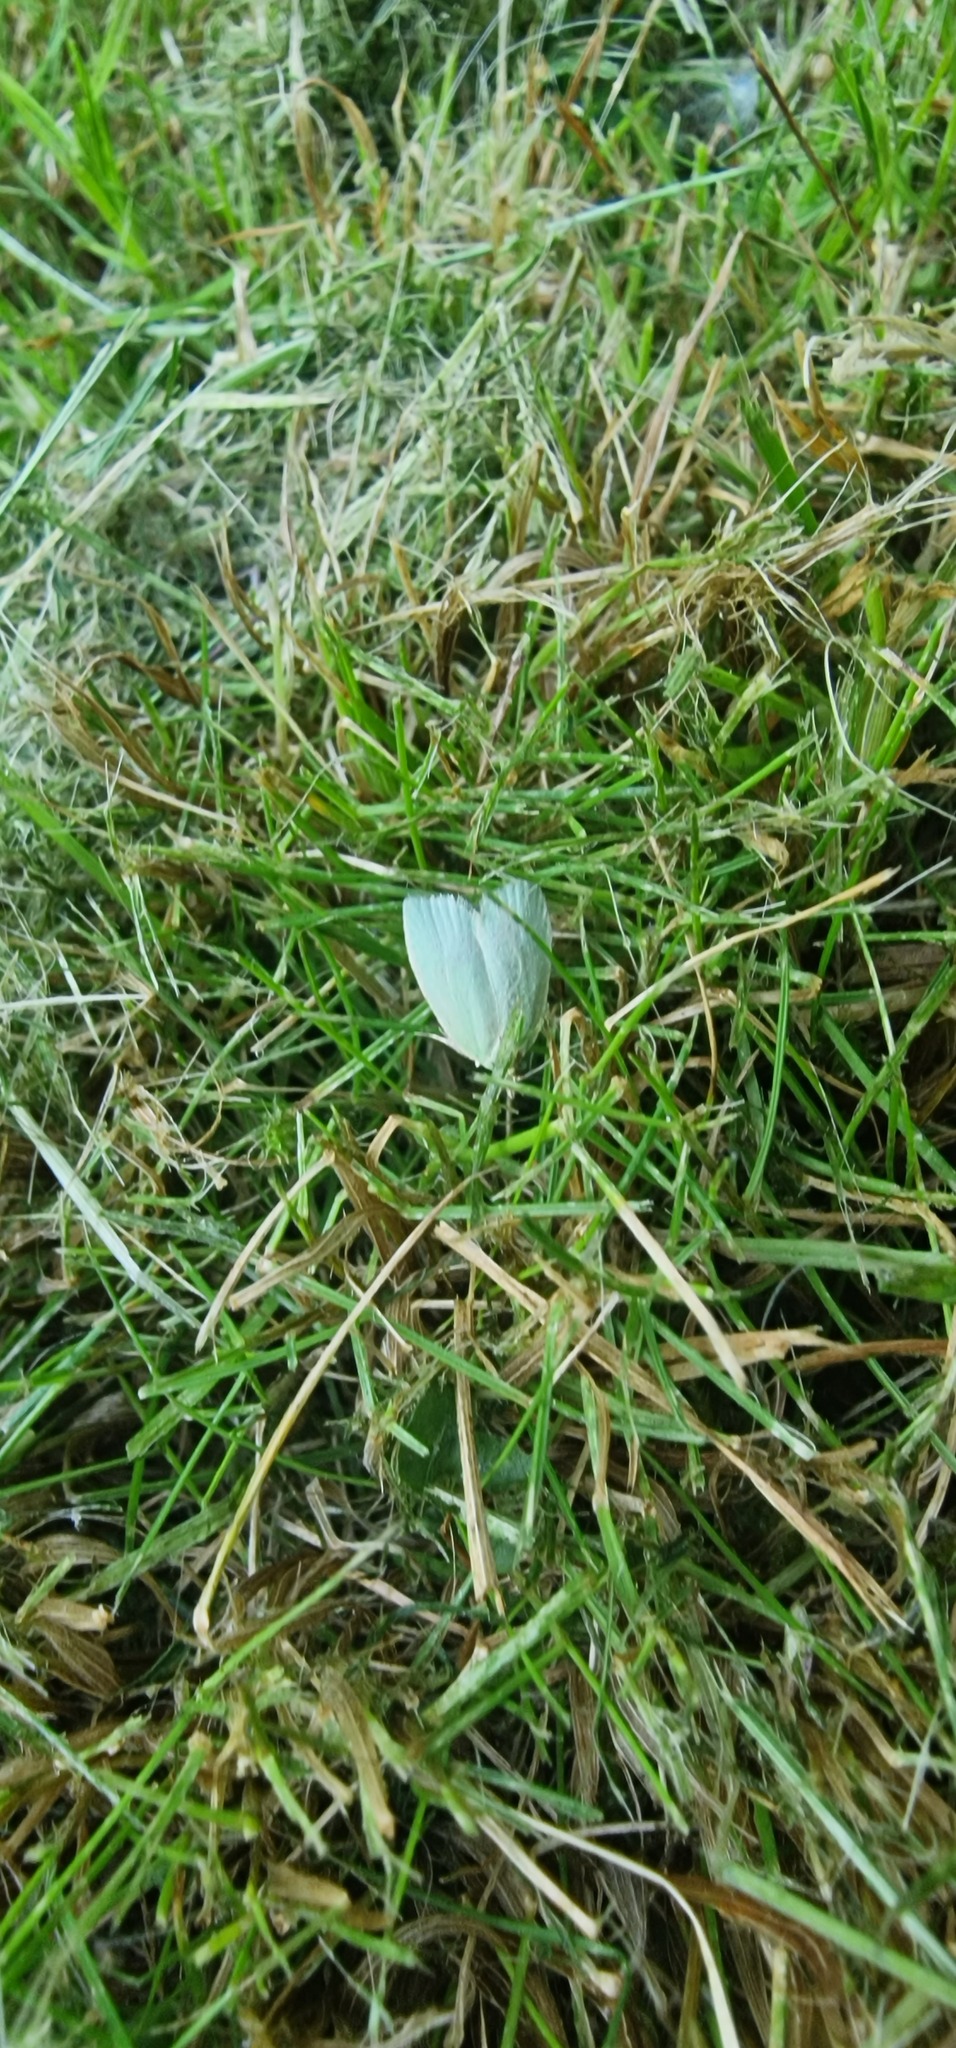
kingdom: Animalia
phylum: Arthropoda
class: Insecta
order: Lepidoptera
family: Tortricidae
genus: Tortrix
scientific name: Tortrix viridana
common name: Green oak tortrix
